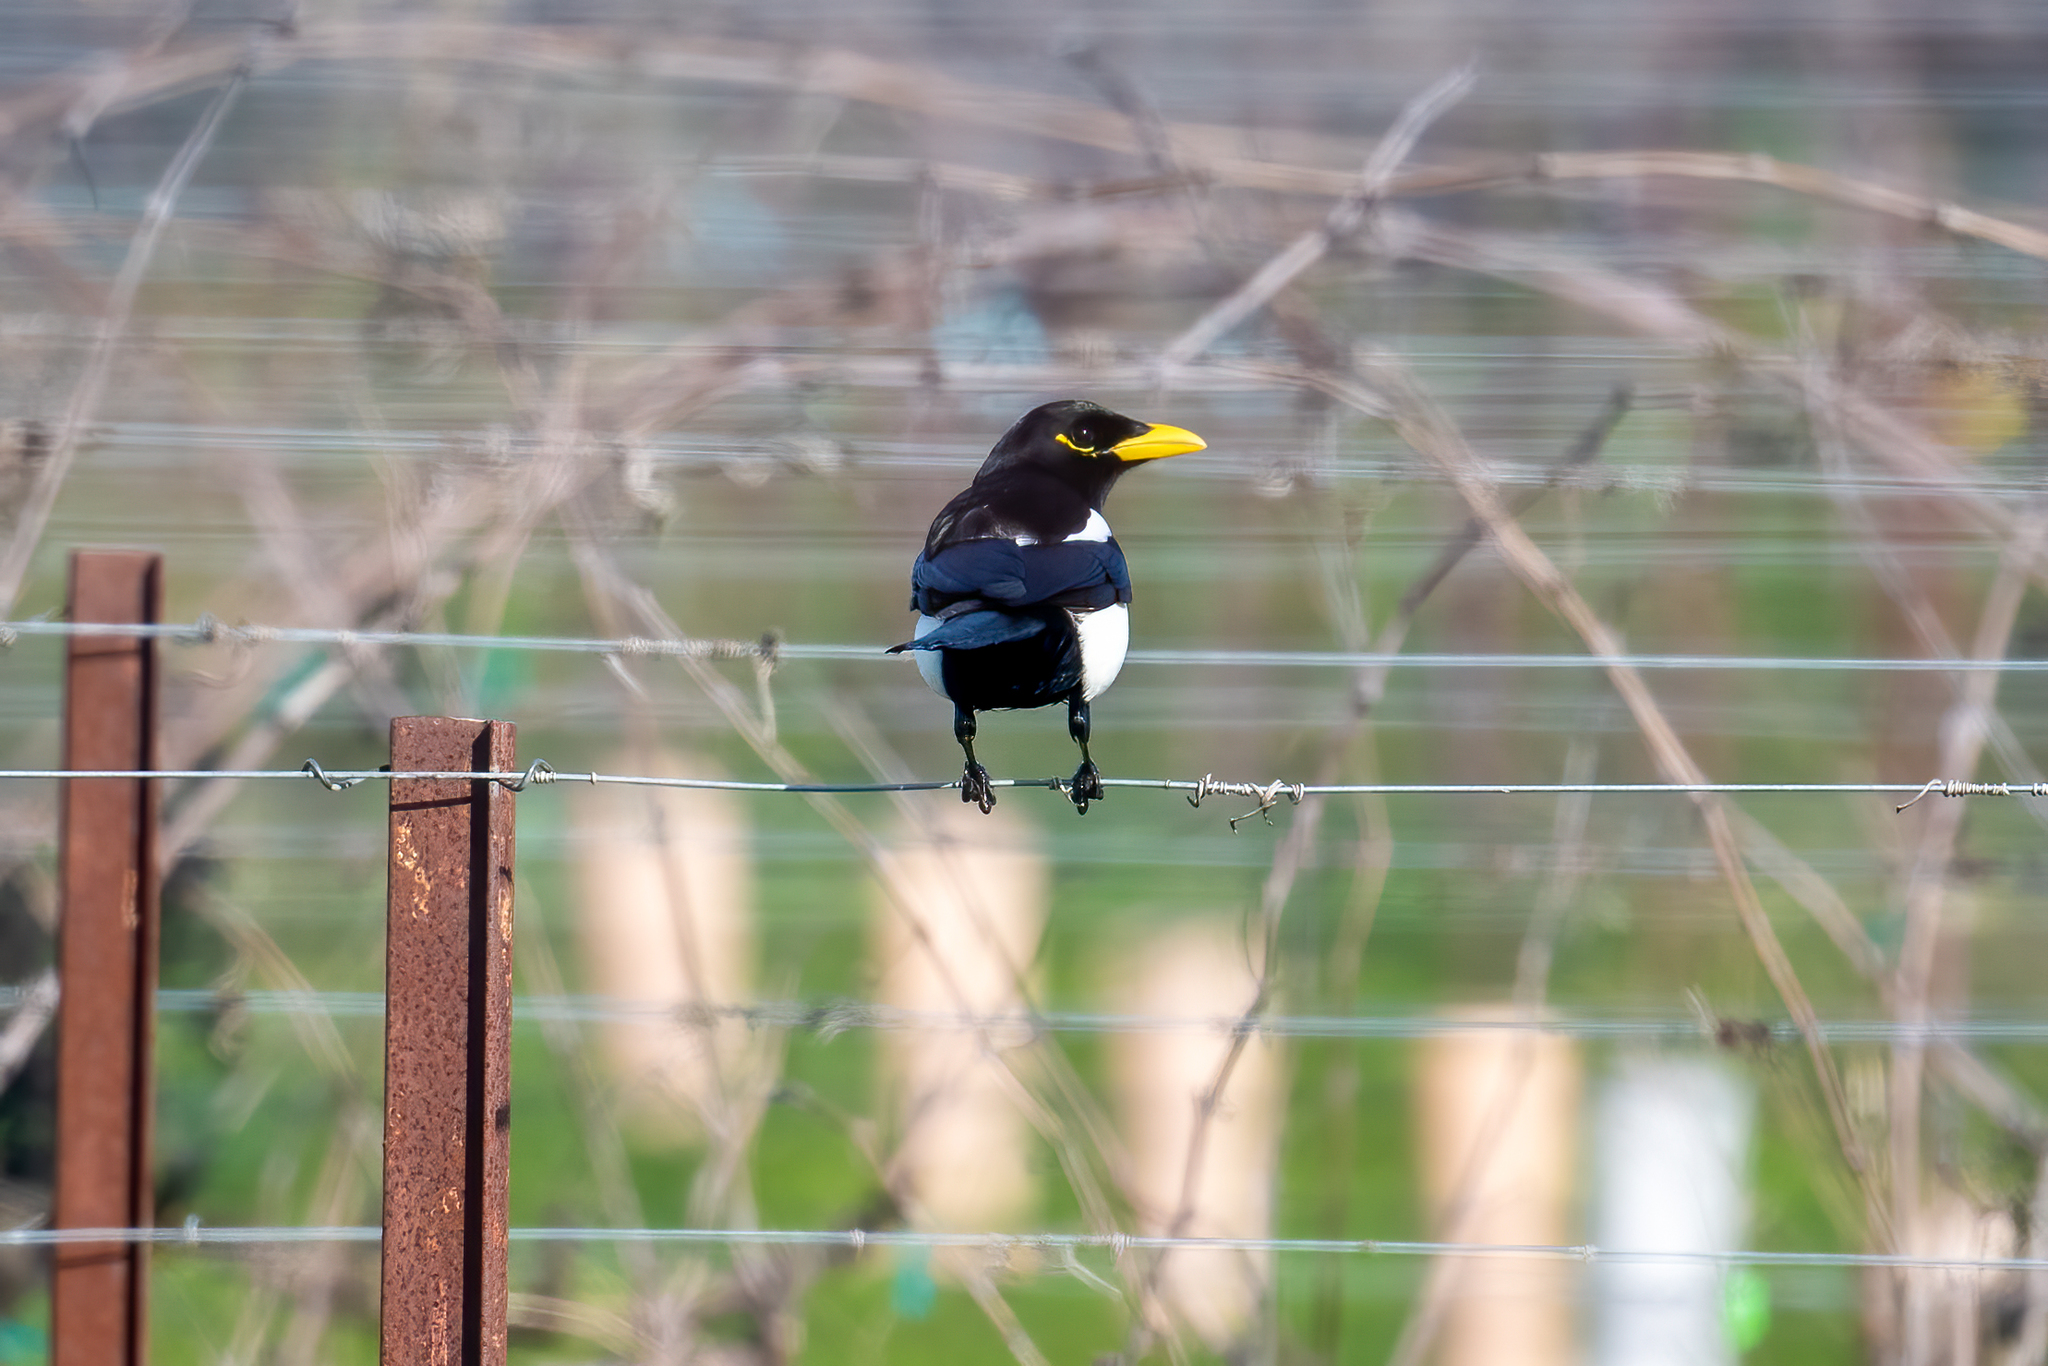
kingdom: Animalia
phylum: Chordata
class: Aves
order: Passeriformes
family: Corvidae
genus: Pica
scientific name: Pica nuttalli
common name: Yellow-billed magpie
